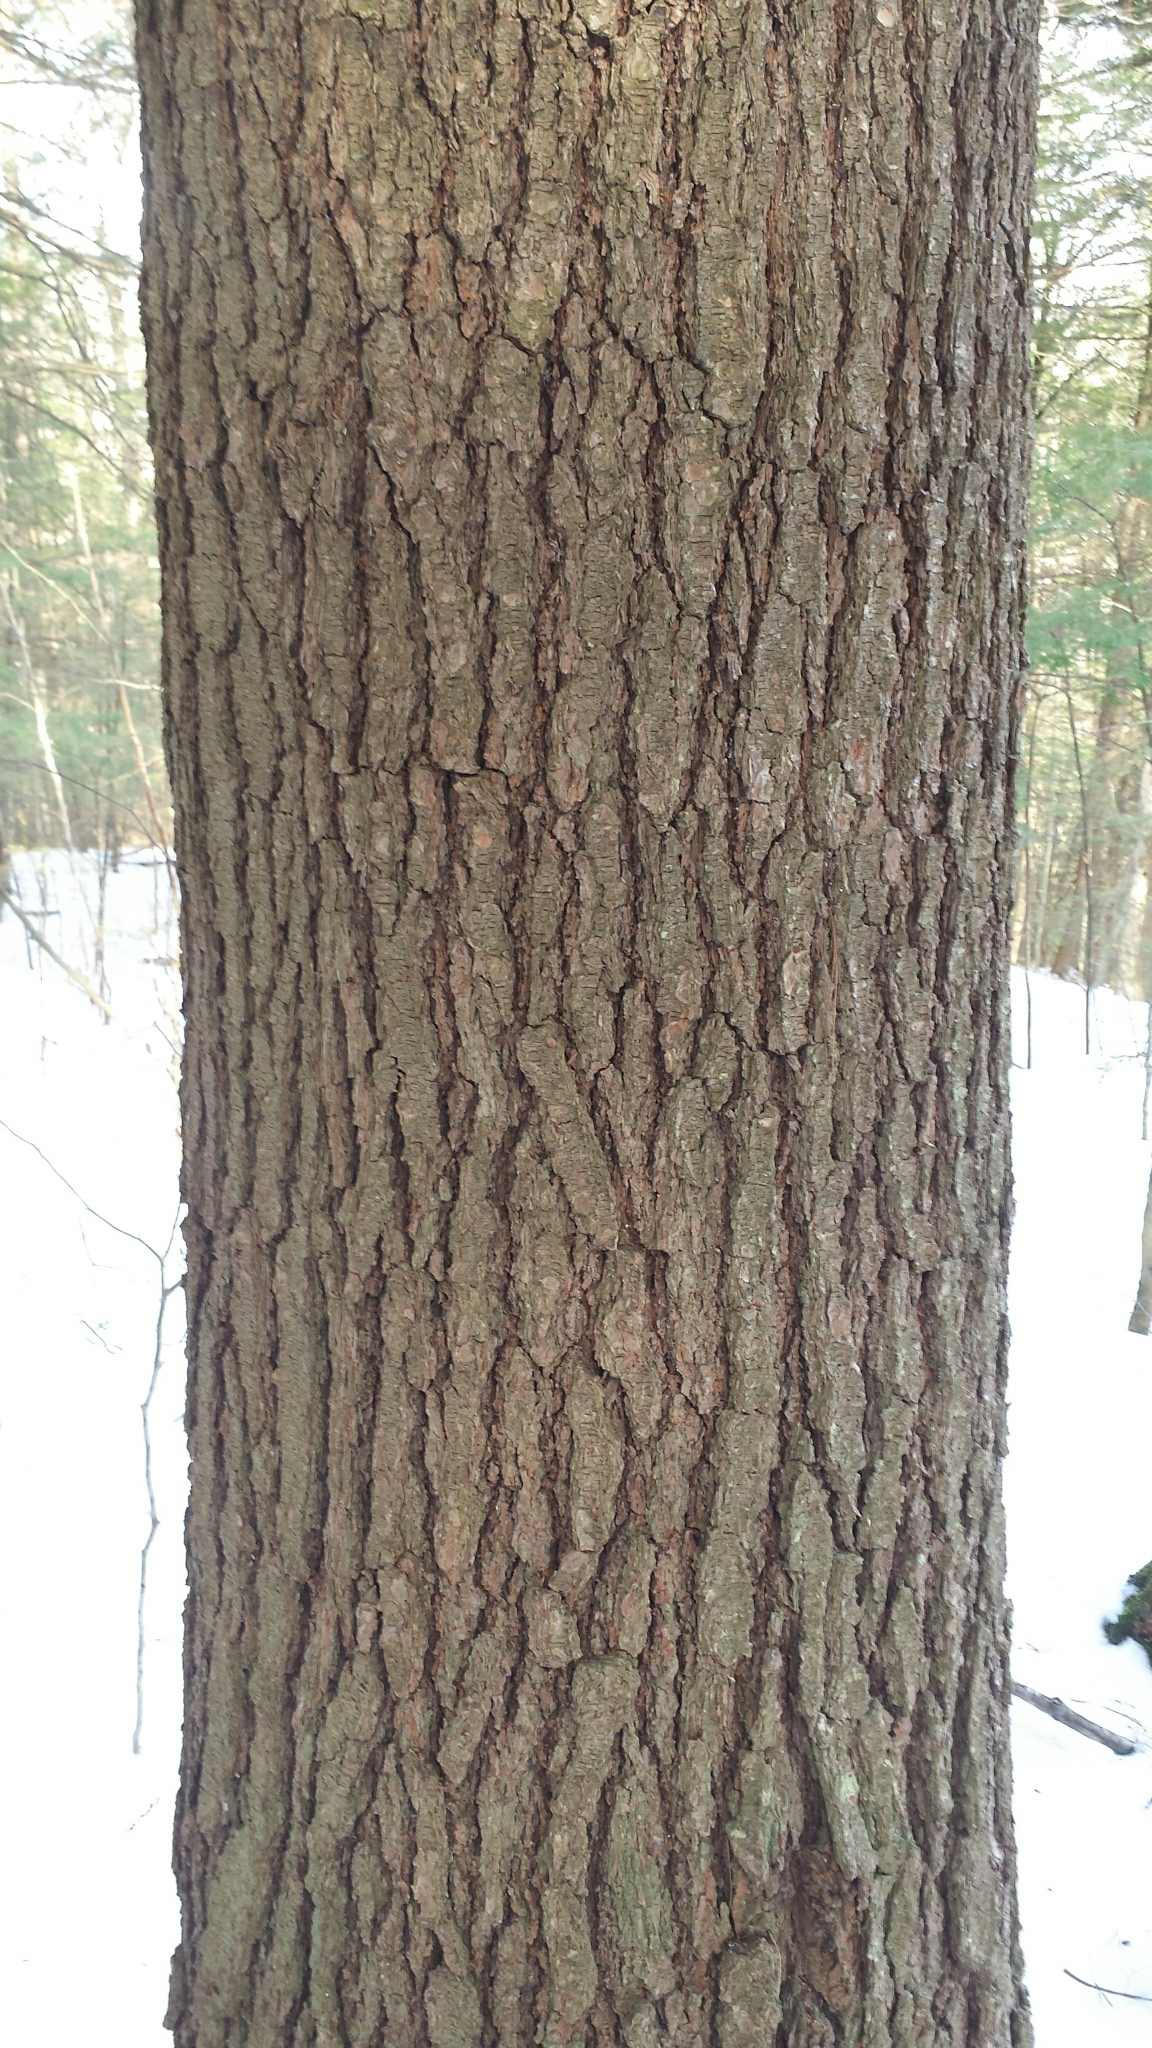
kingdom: Plantae
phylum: Tracheophyta
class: Pinopsida
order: Pinales
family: Pinaceae
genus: Pinus
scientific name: Pinus strobus
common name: Weymouth pine
